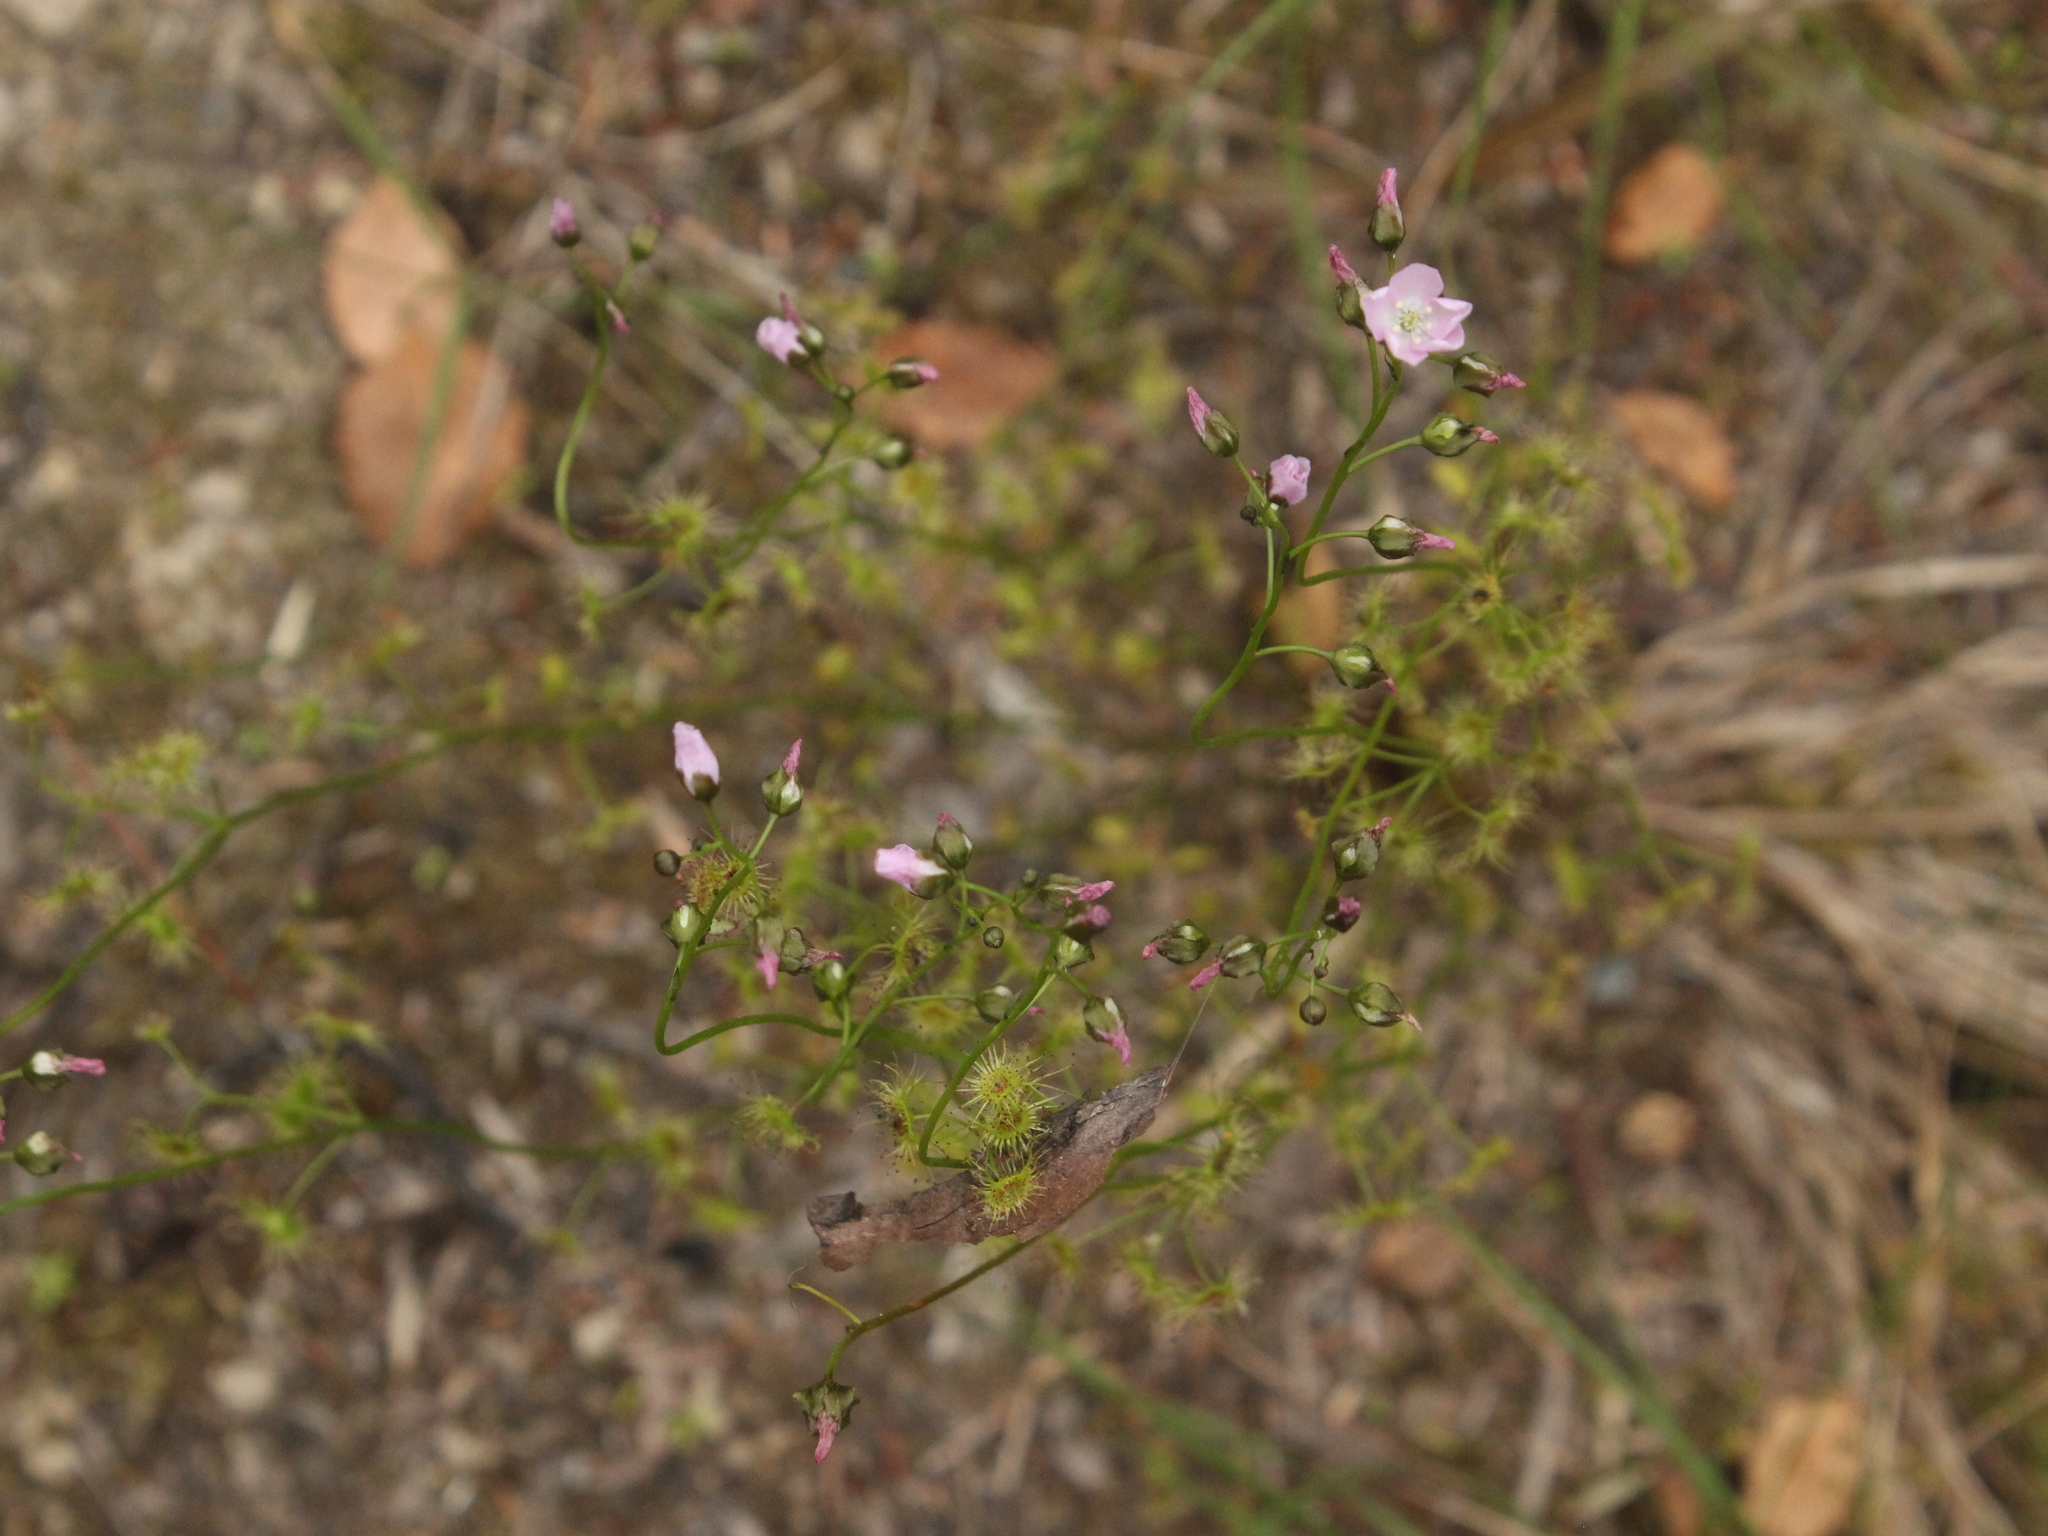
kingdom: Plantae
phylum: Tracheophyta
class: Magnoliopsida
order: Caryophyllales
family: Droseraceae
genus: Drosera
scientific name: Drosera peltata
